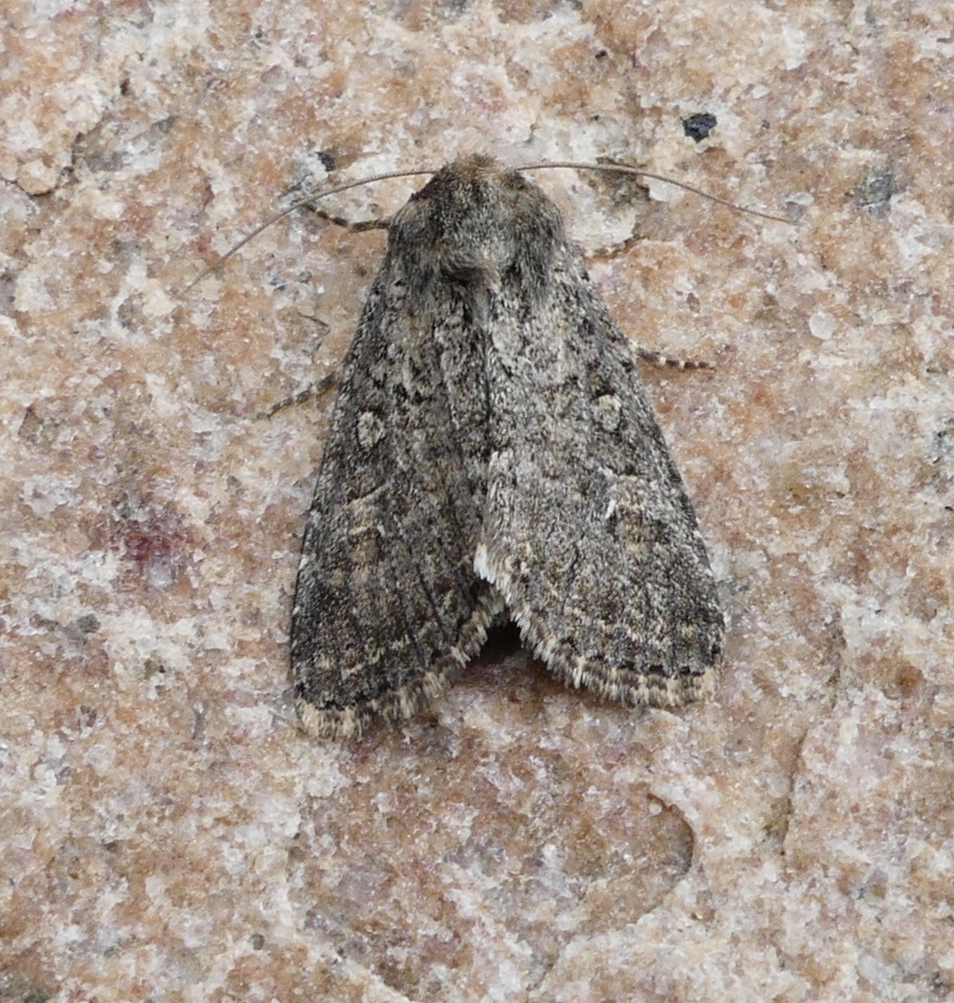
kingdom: Animalia
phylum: Arthropoda
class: Insecta
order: Lepidoptera
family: Noctuidae
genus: Apamea
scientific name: Apamea devastator
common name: Glassy cutworm
